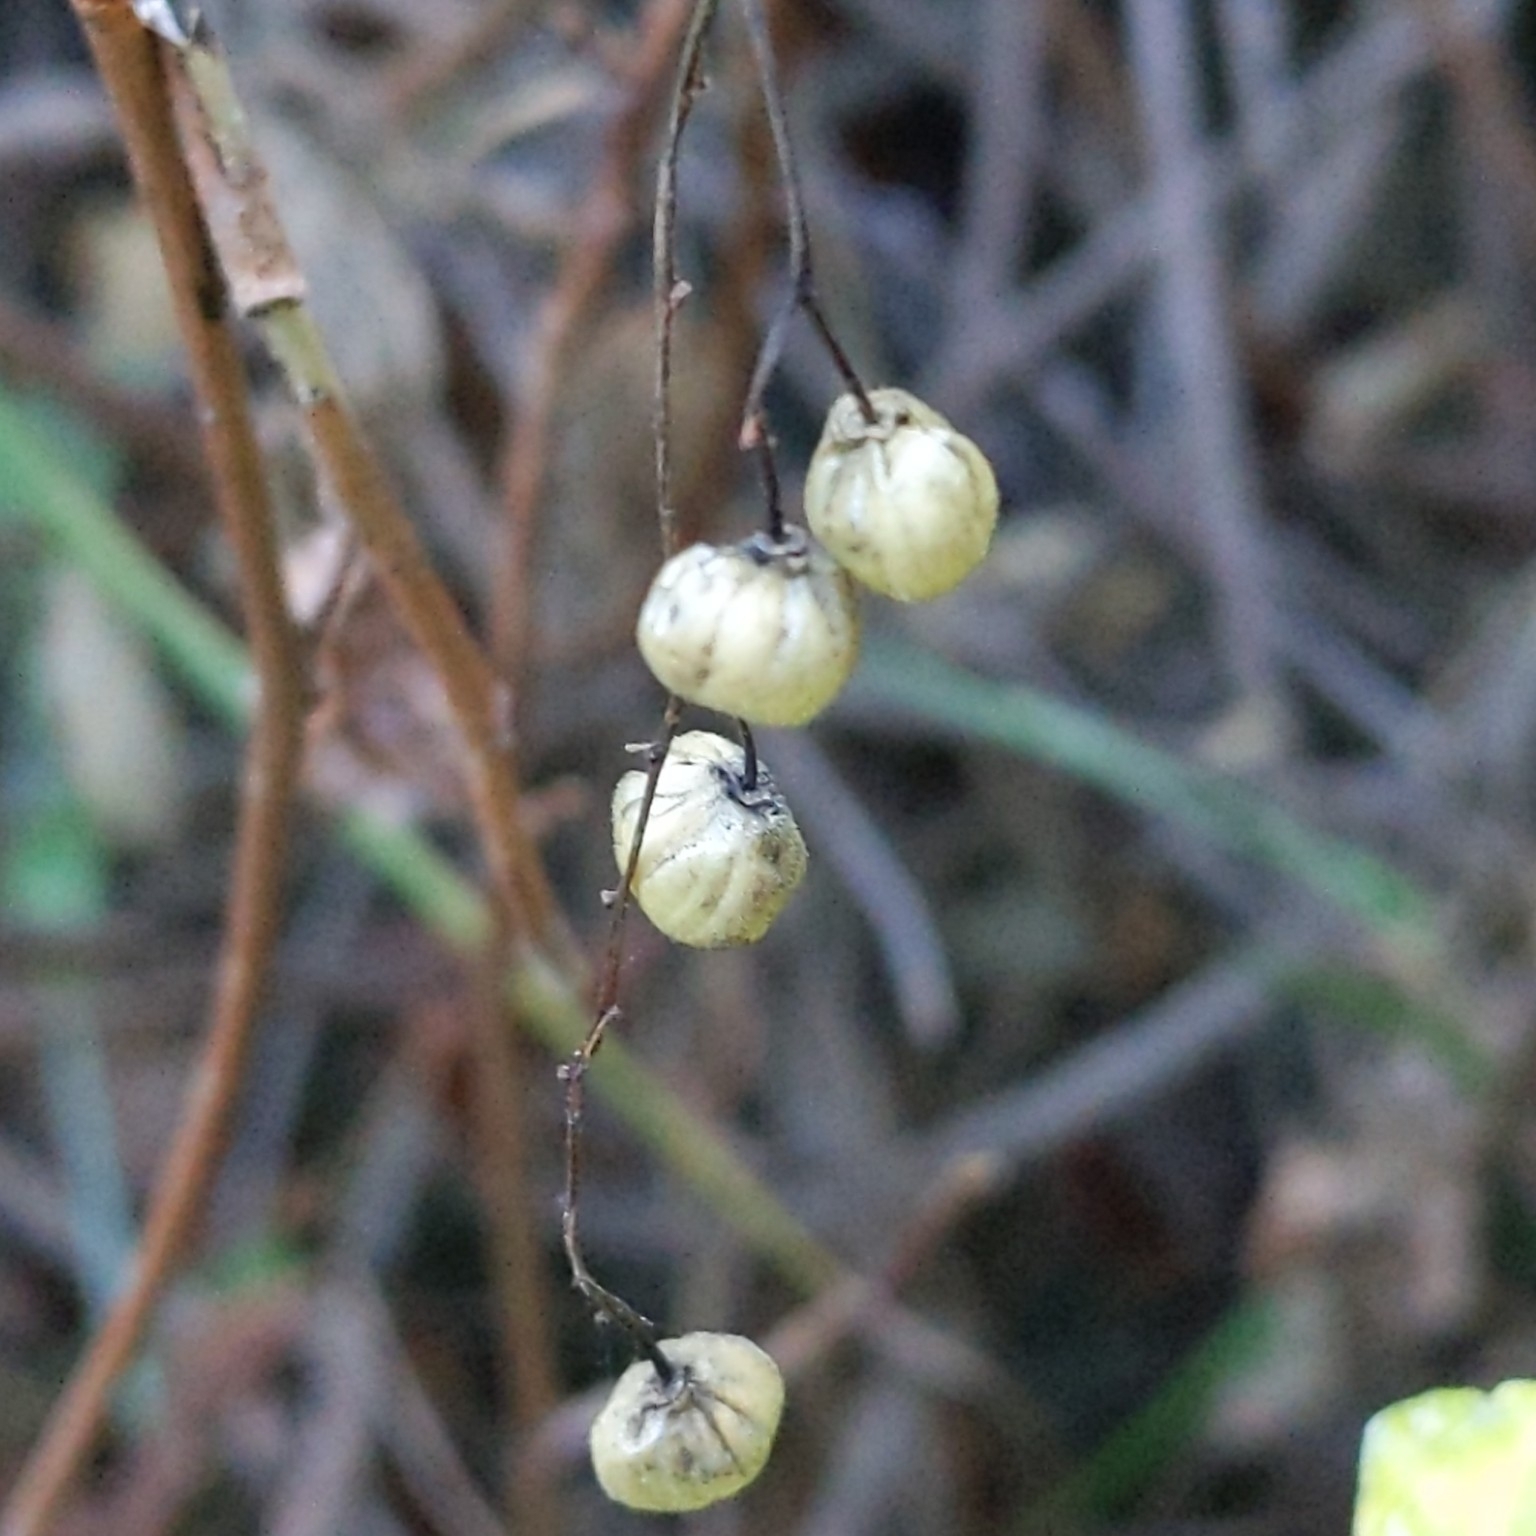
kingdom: Plantae
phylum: Tracheophyta
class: Magnoliopsida
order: Sapindales
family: Anacardiaceae
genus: Toxicodendron
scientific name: Toxicodendron diversilobum
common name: Pacific poison-oak
